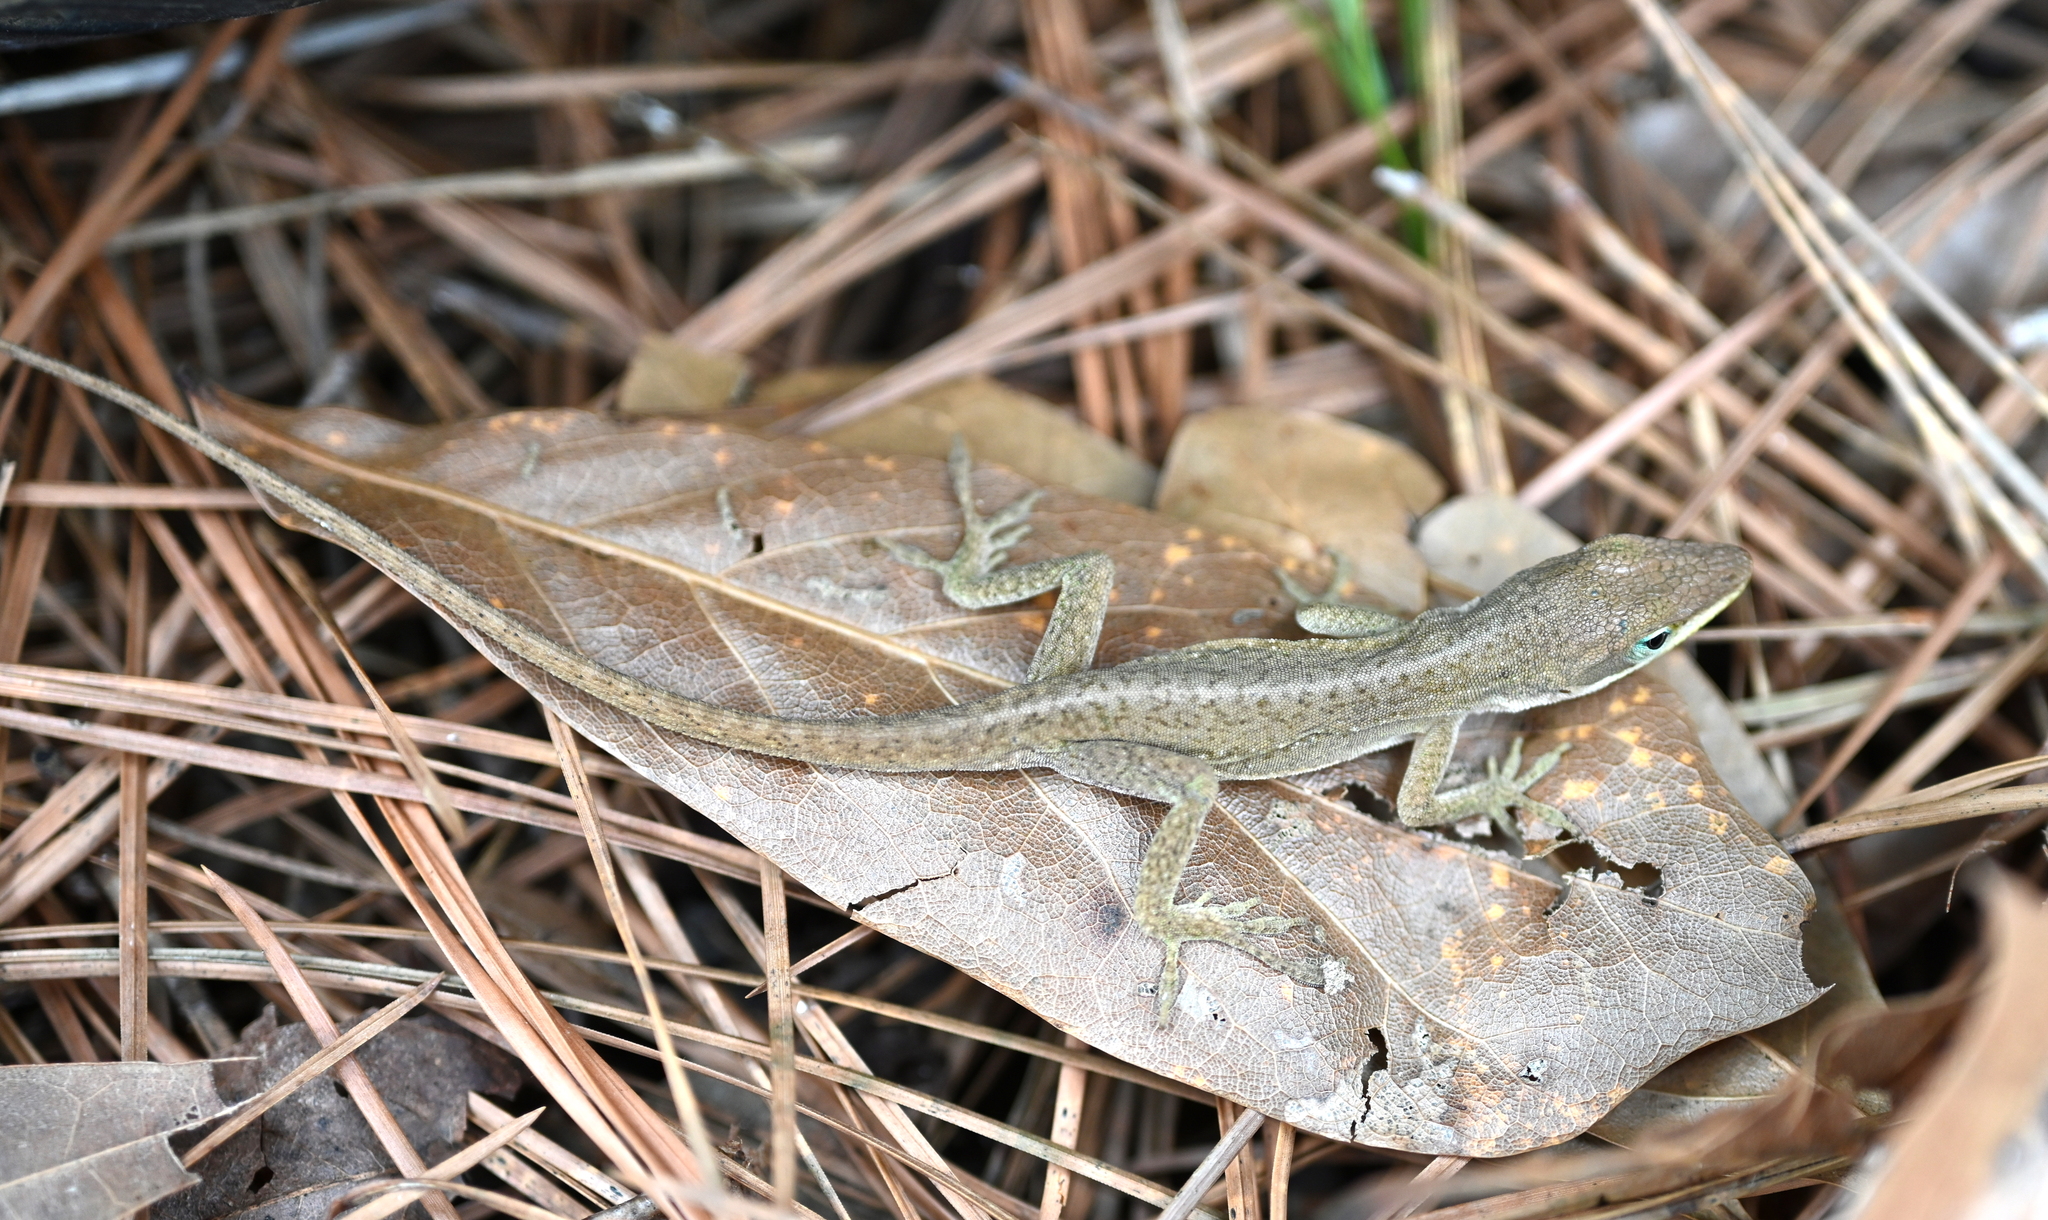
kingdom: Animalia
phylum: Chordata
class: Squamata
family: Dactyloidae
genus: Anolis
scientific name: Anolis carolinensis
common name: Green anole
